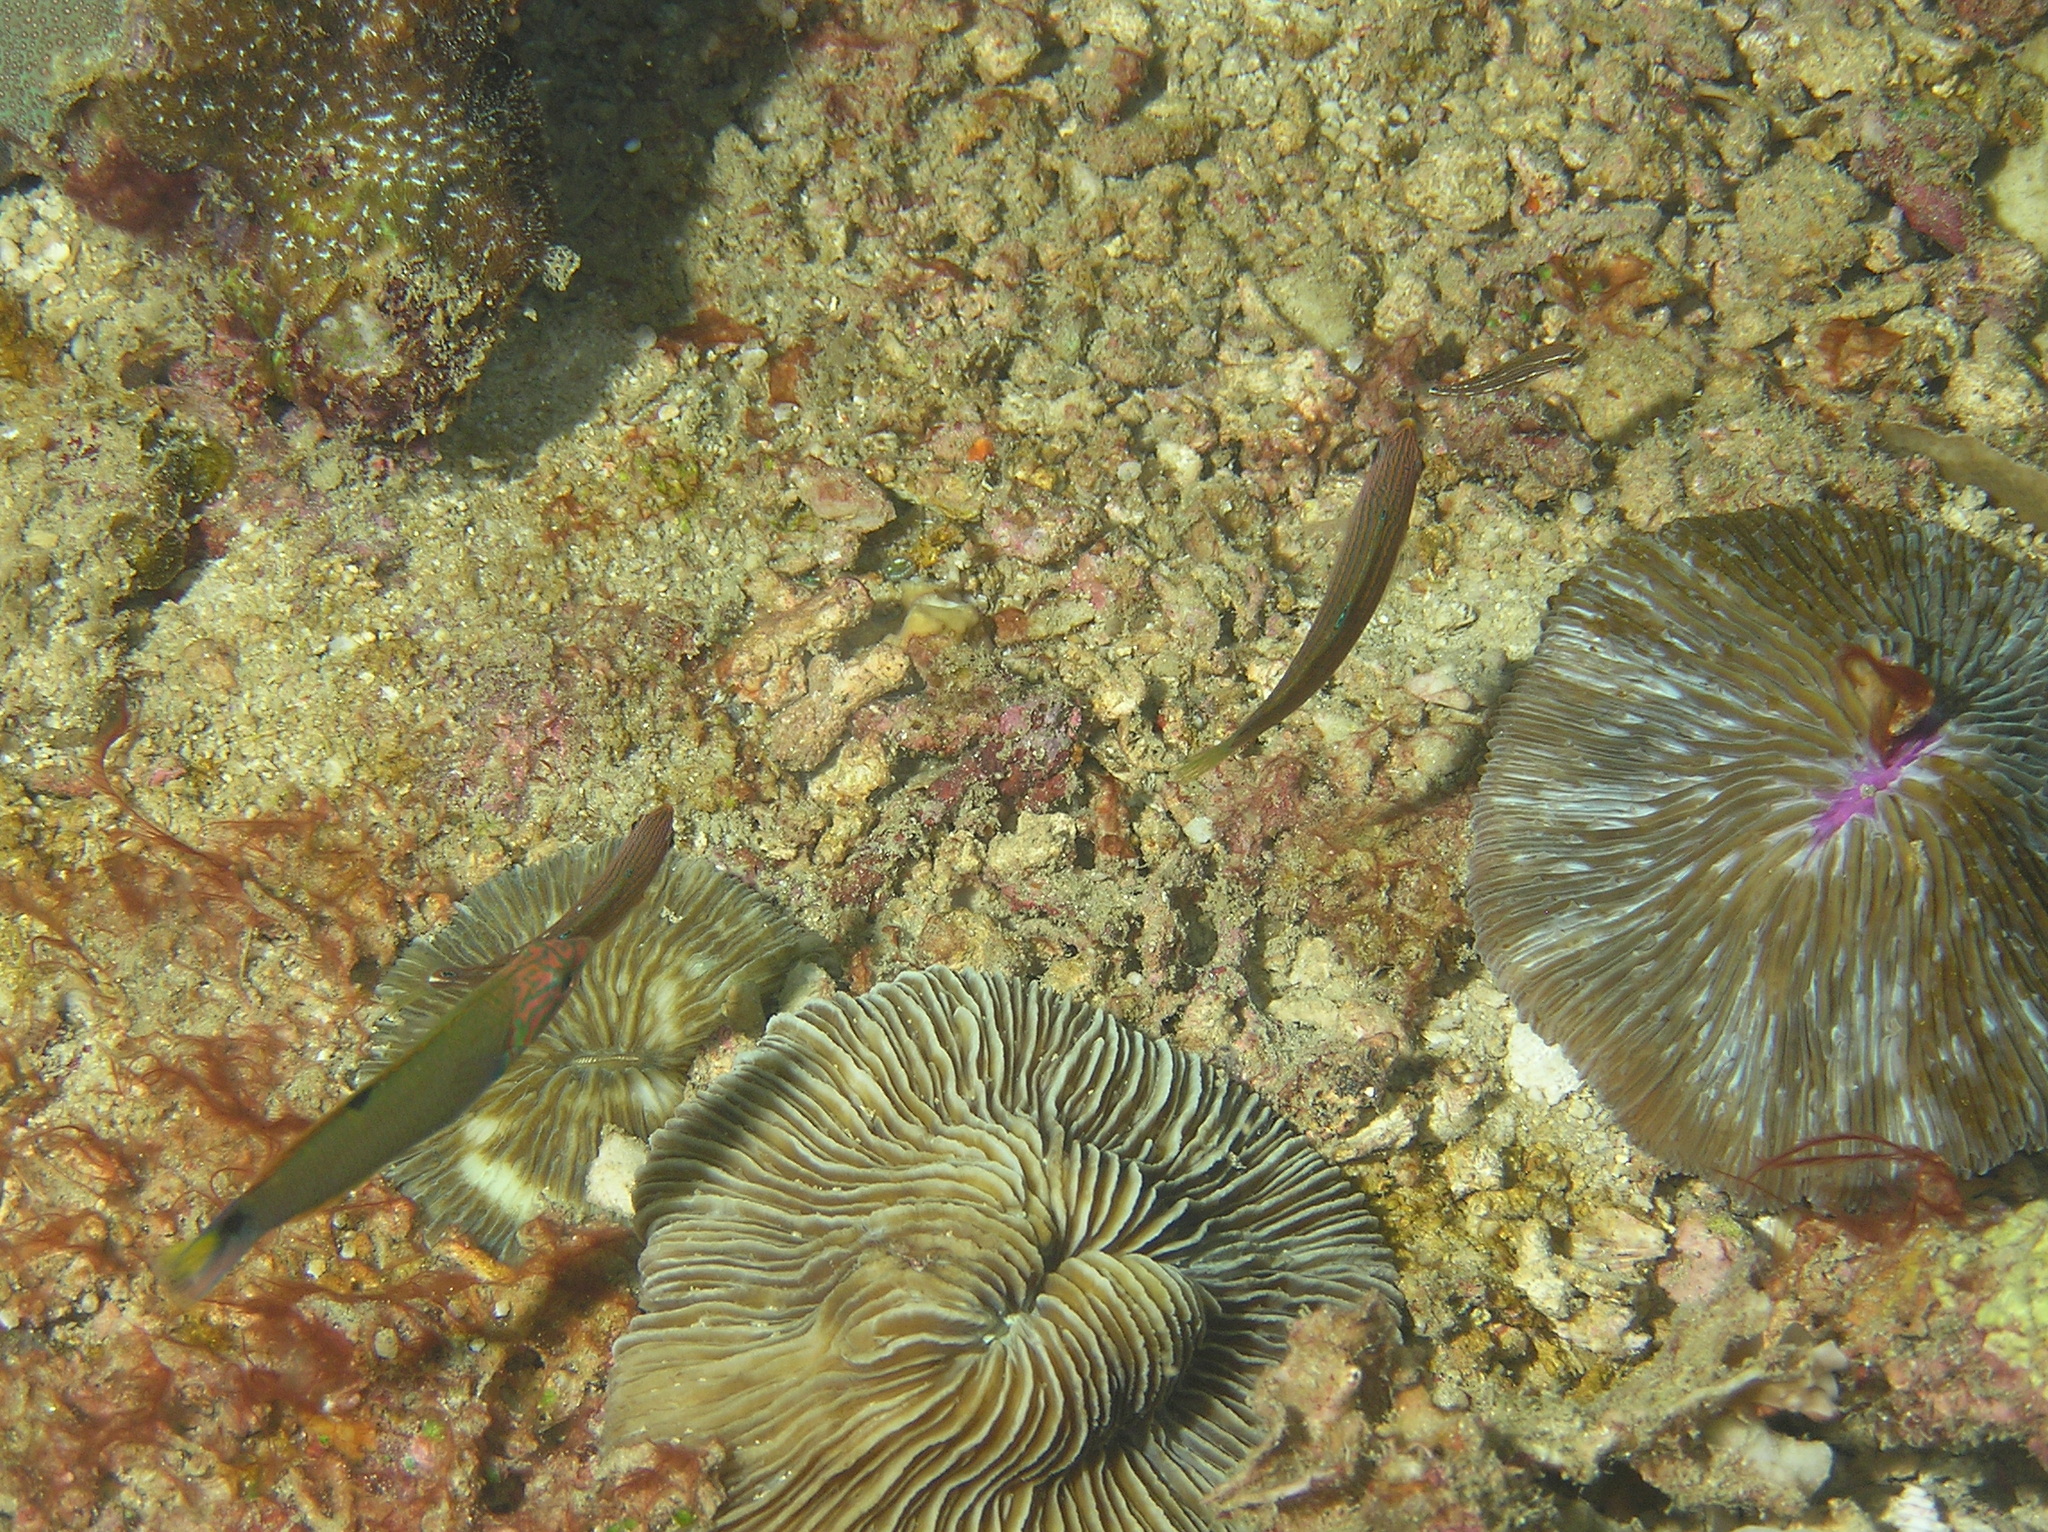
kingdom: Animalia
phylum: Chordata
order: Perciformes
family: Labridae
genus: Thalassoma
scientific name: Thalassoma lunare
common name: Blue wrasse
